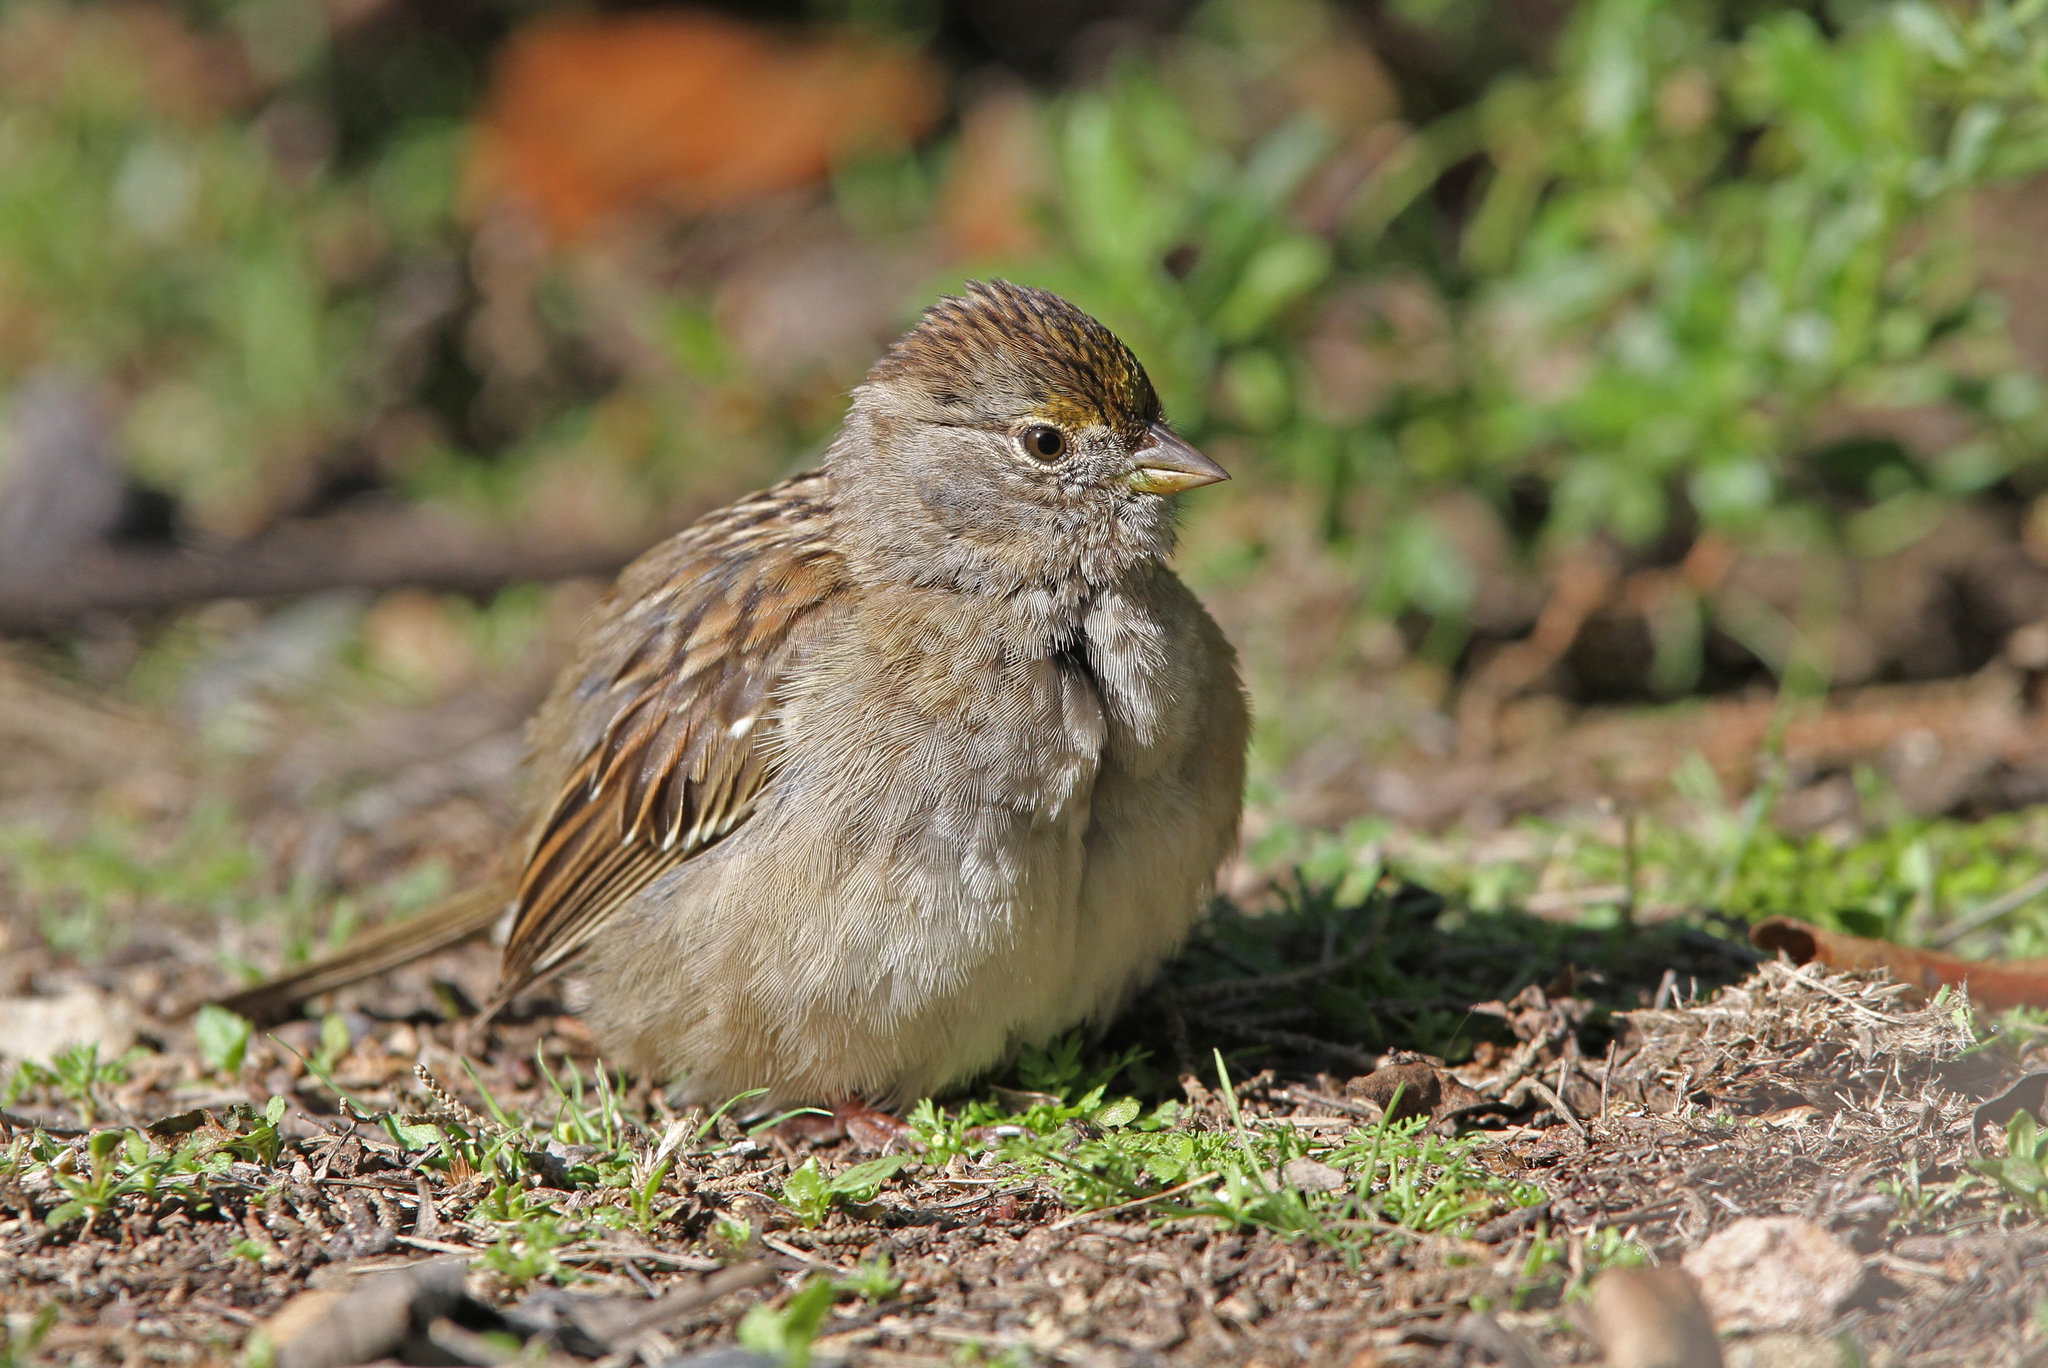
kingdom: Animalia
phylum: Chordata
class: Aves
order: Passeriformes
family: Passerellidae
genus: Zonotrichia
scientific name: Zonotrichia atricapilla
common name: Golden-crowned sparrow
